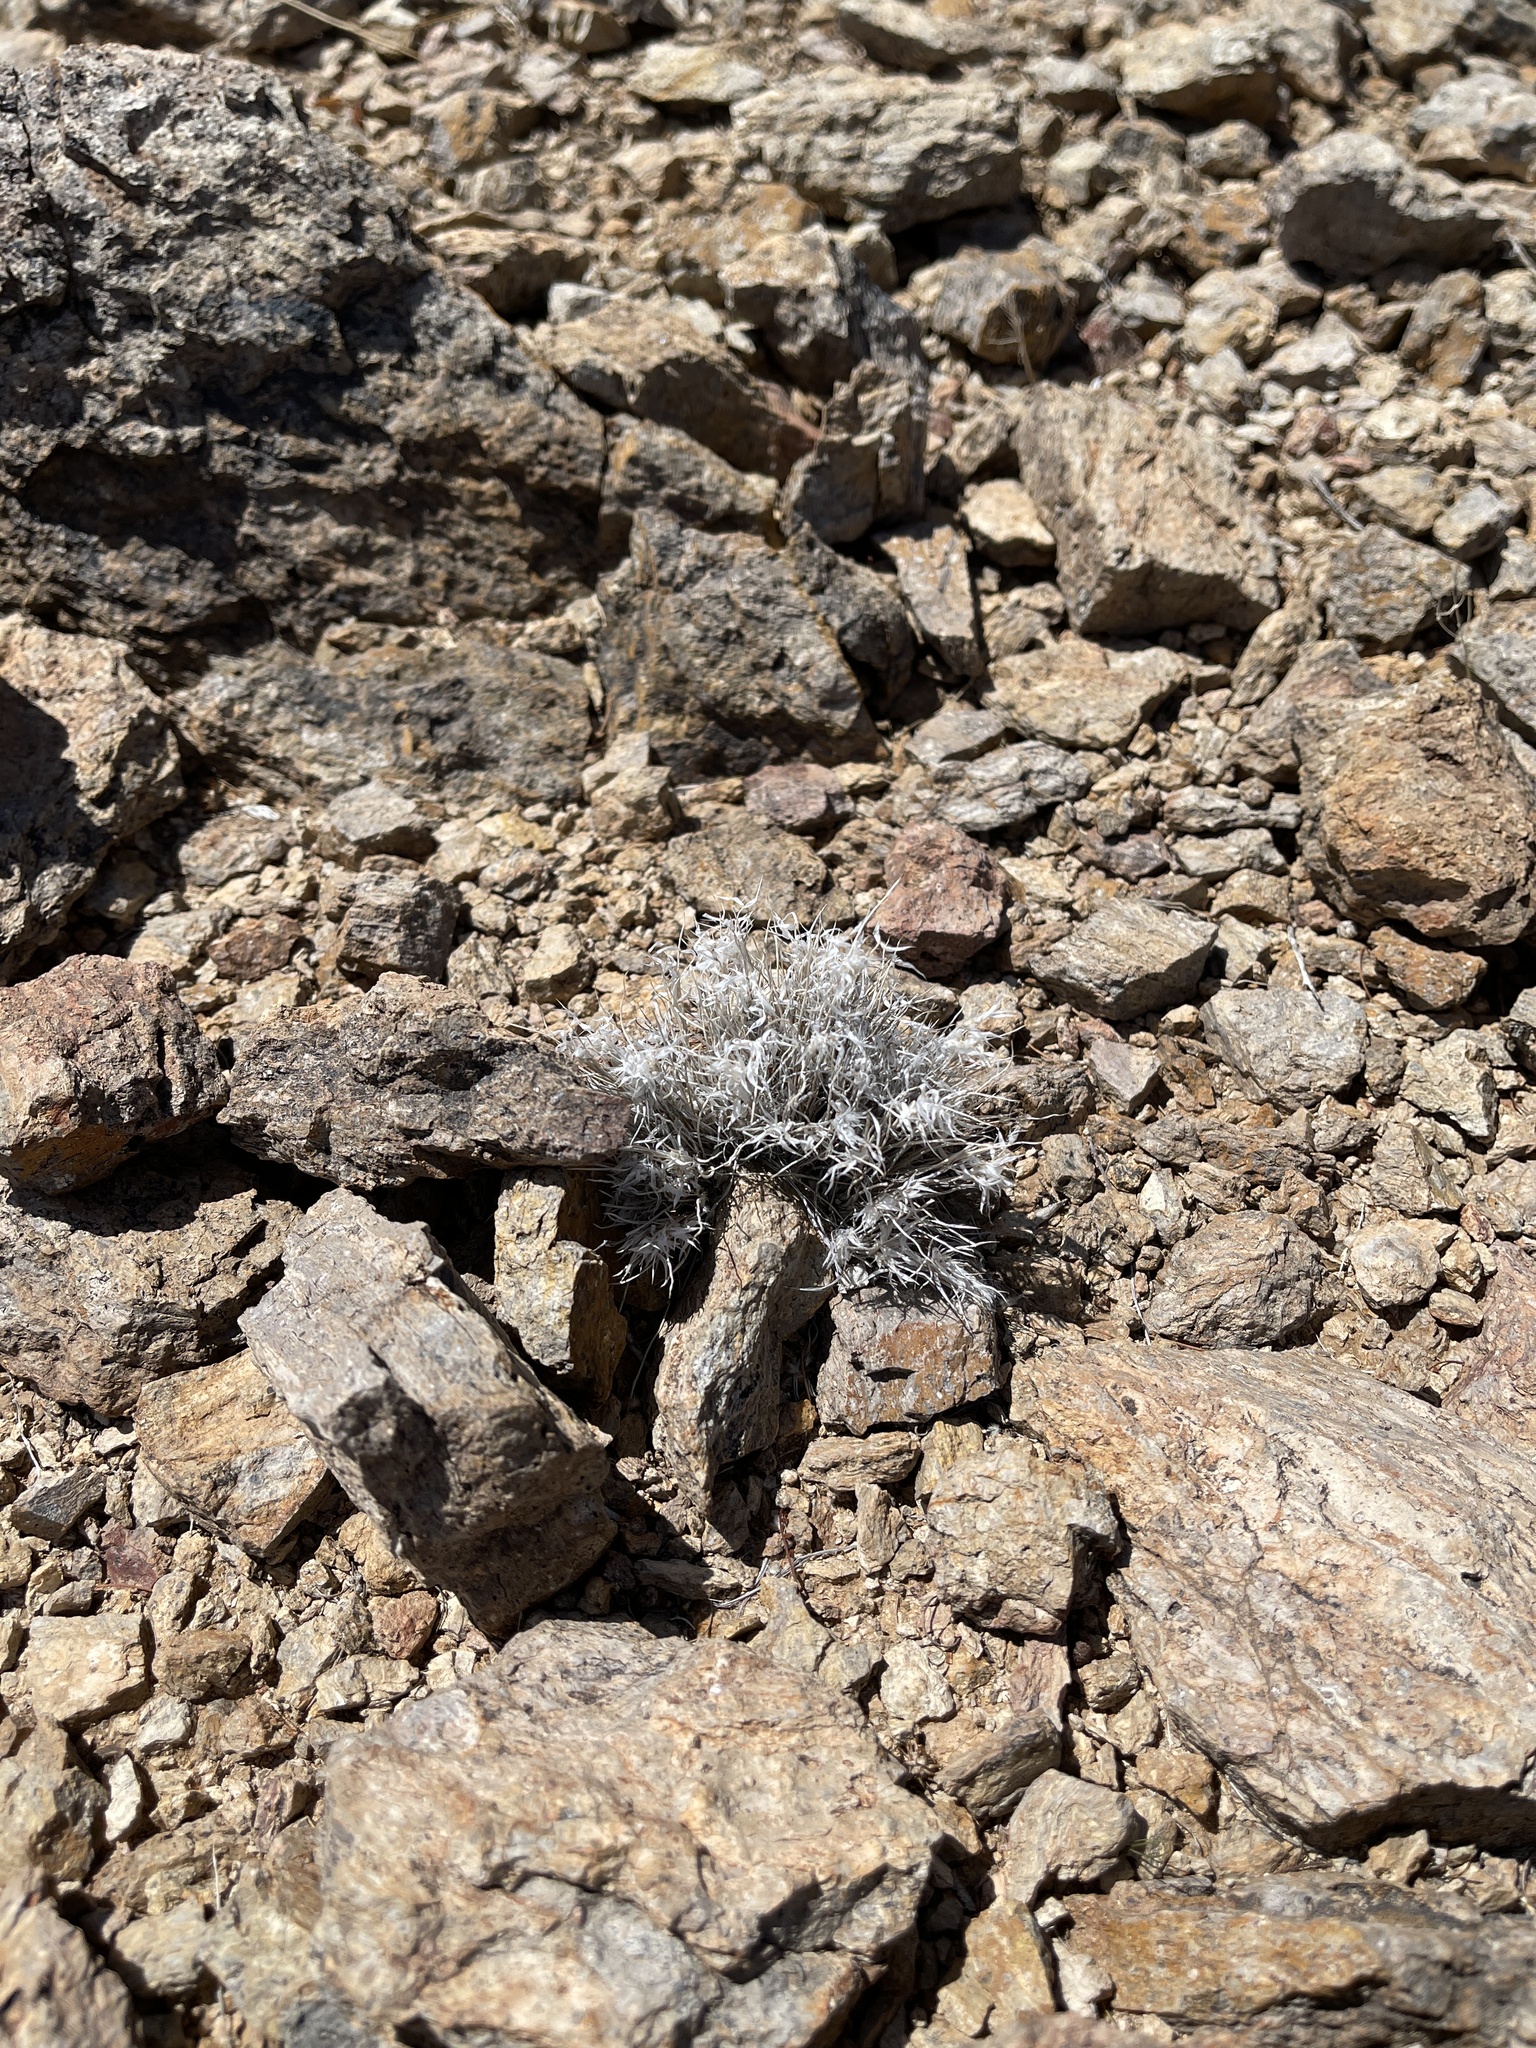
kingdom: Plantae
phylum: Tracheophyta
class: Liliopsida
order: Poales
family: Poaceae
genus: Dasyochloa
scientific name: Dasyochloa pulchella
